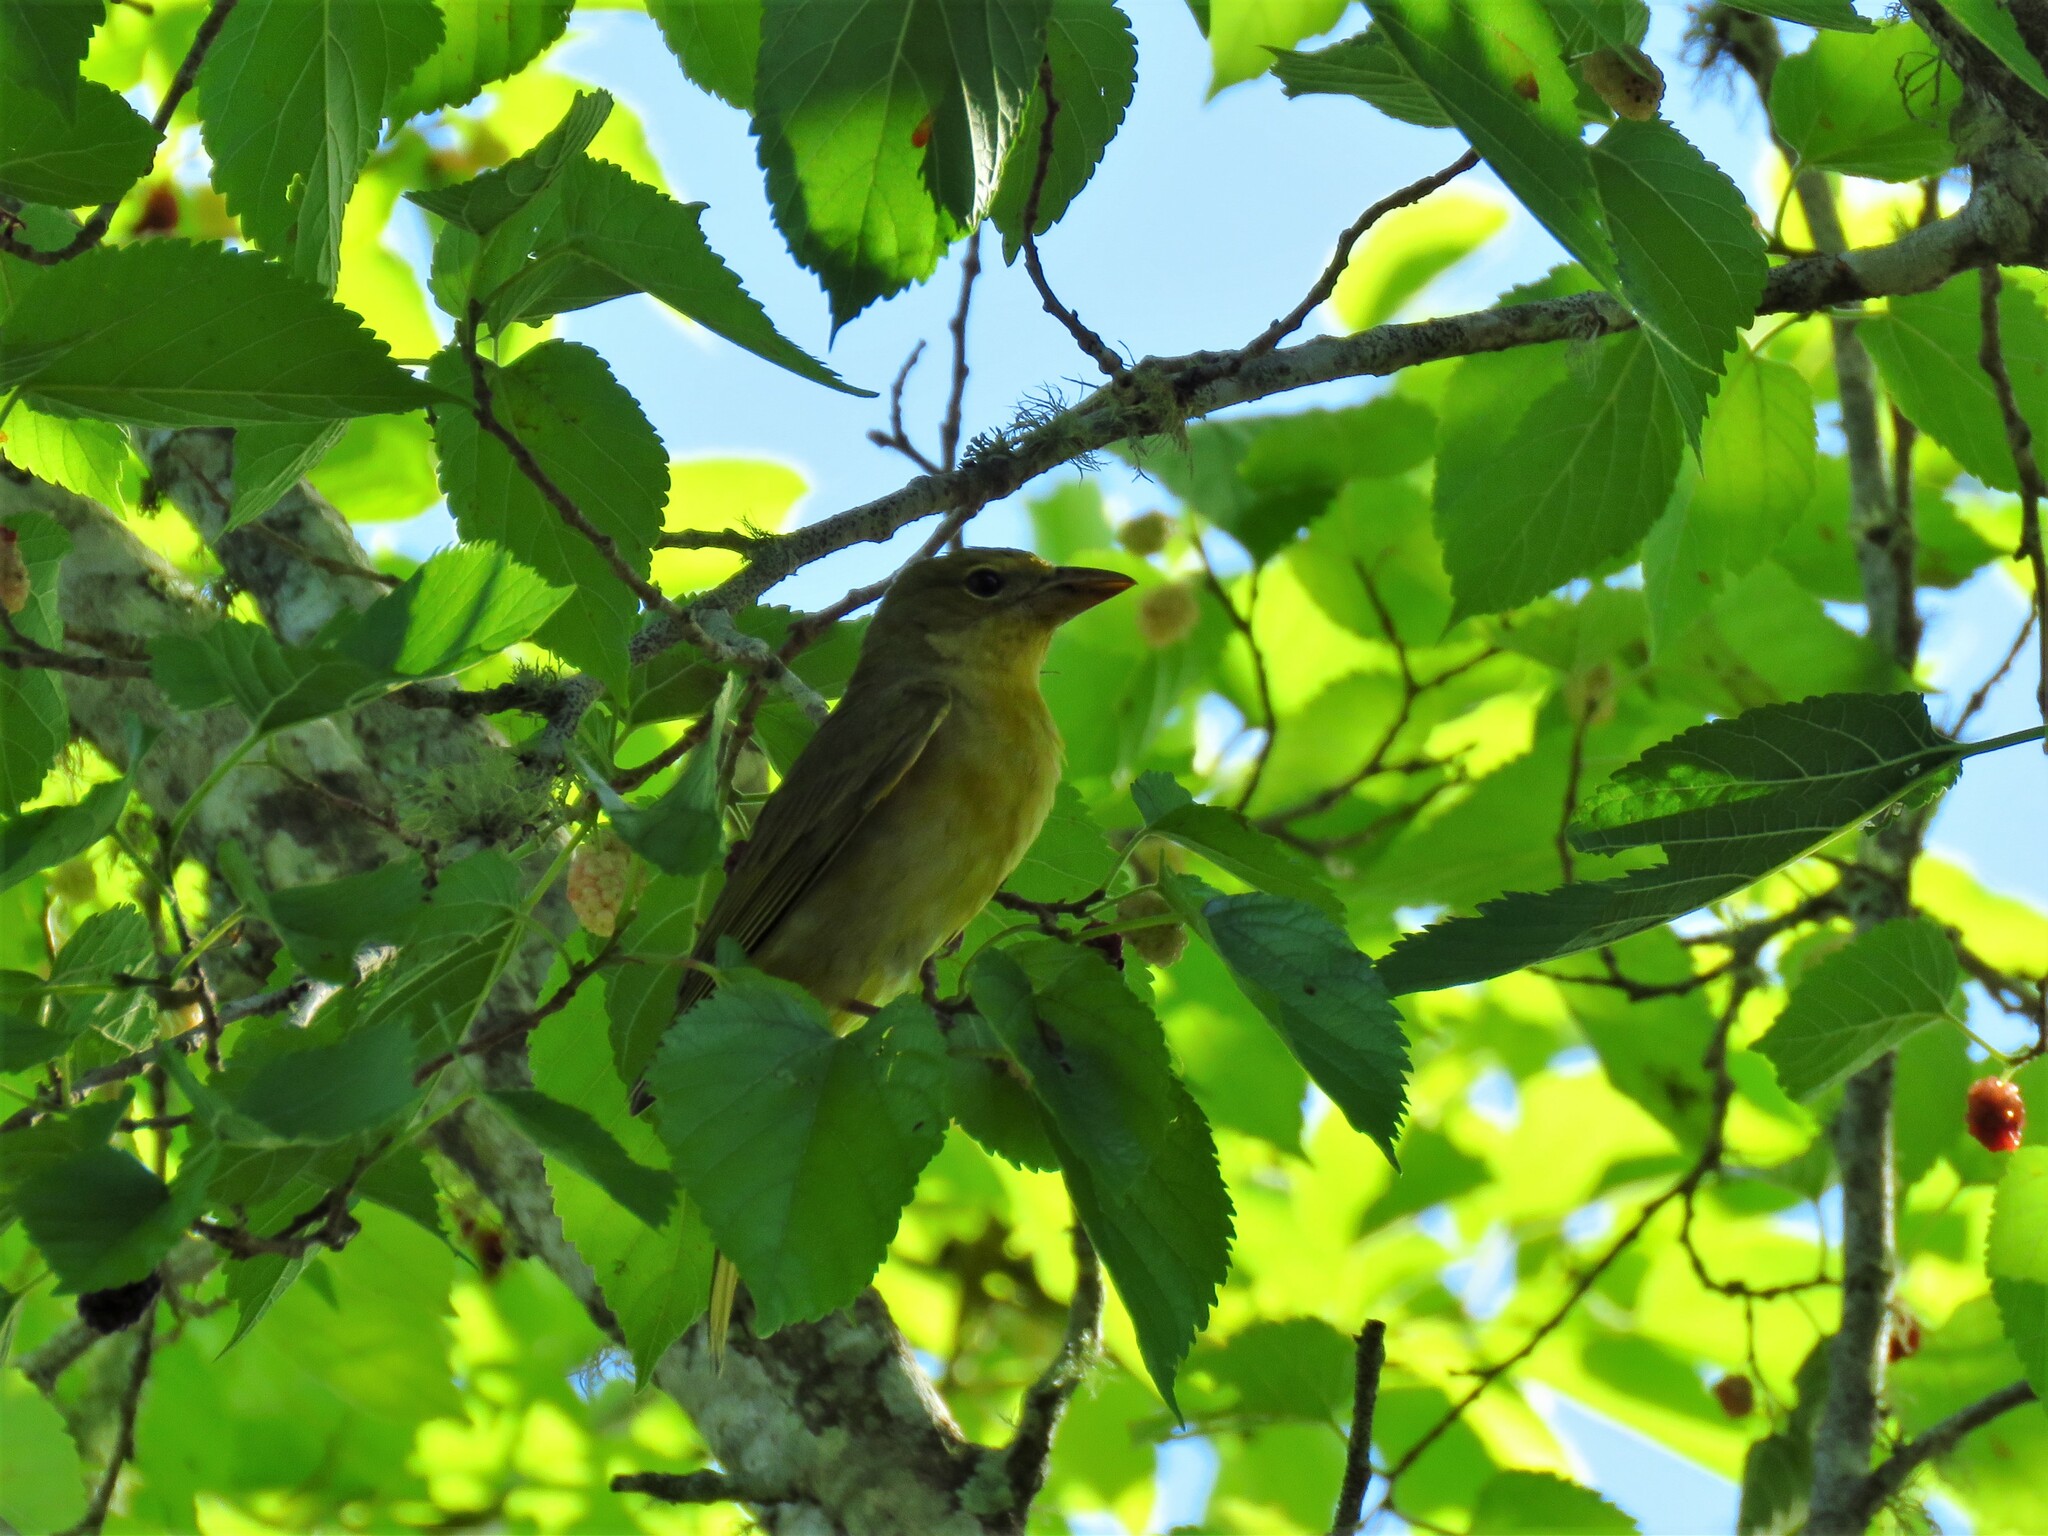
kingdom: Animalia
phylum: Chordata
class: Aves
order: Passeriformes
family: Cardinalidae
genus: Piranga
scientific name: Piranga rubra
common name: Summer tanager
